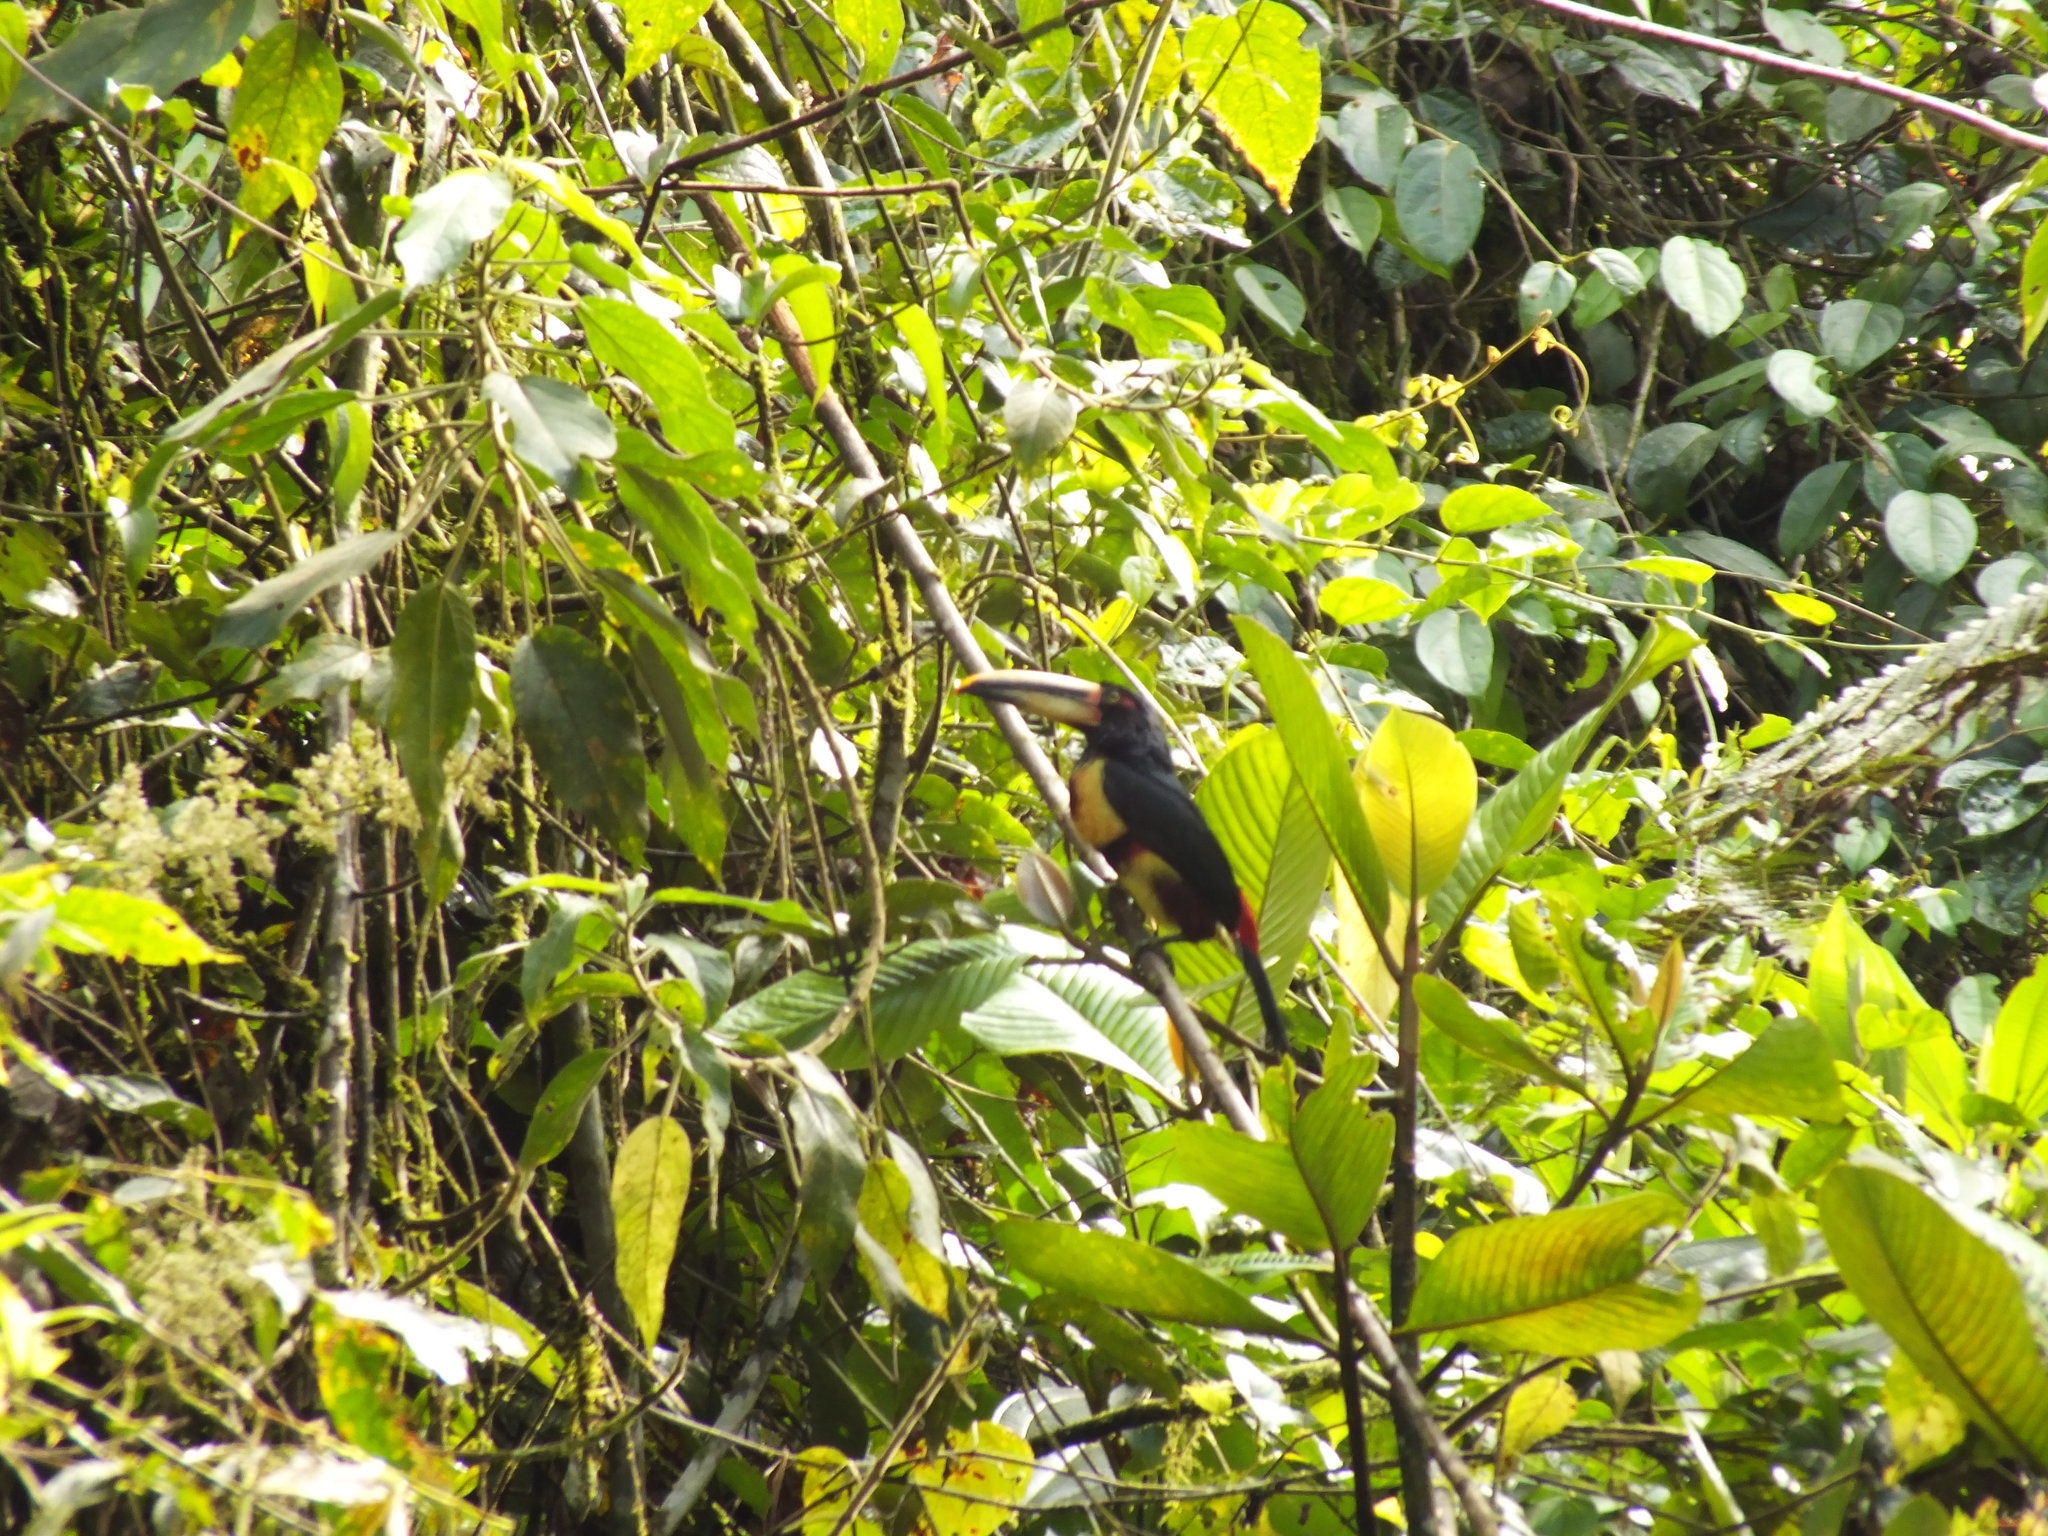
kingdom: Animalia
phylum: Chordata
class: Aves
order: Piciformes
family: Ramphastidae
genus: Pteroglossus
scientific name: Pteroglossus torquatus
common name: Collared aracari
